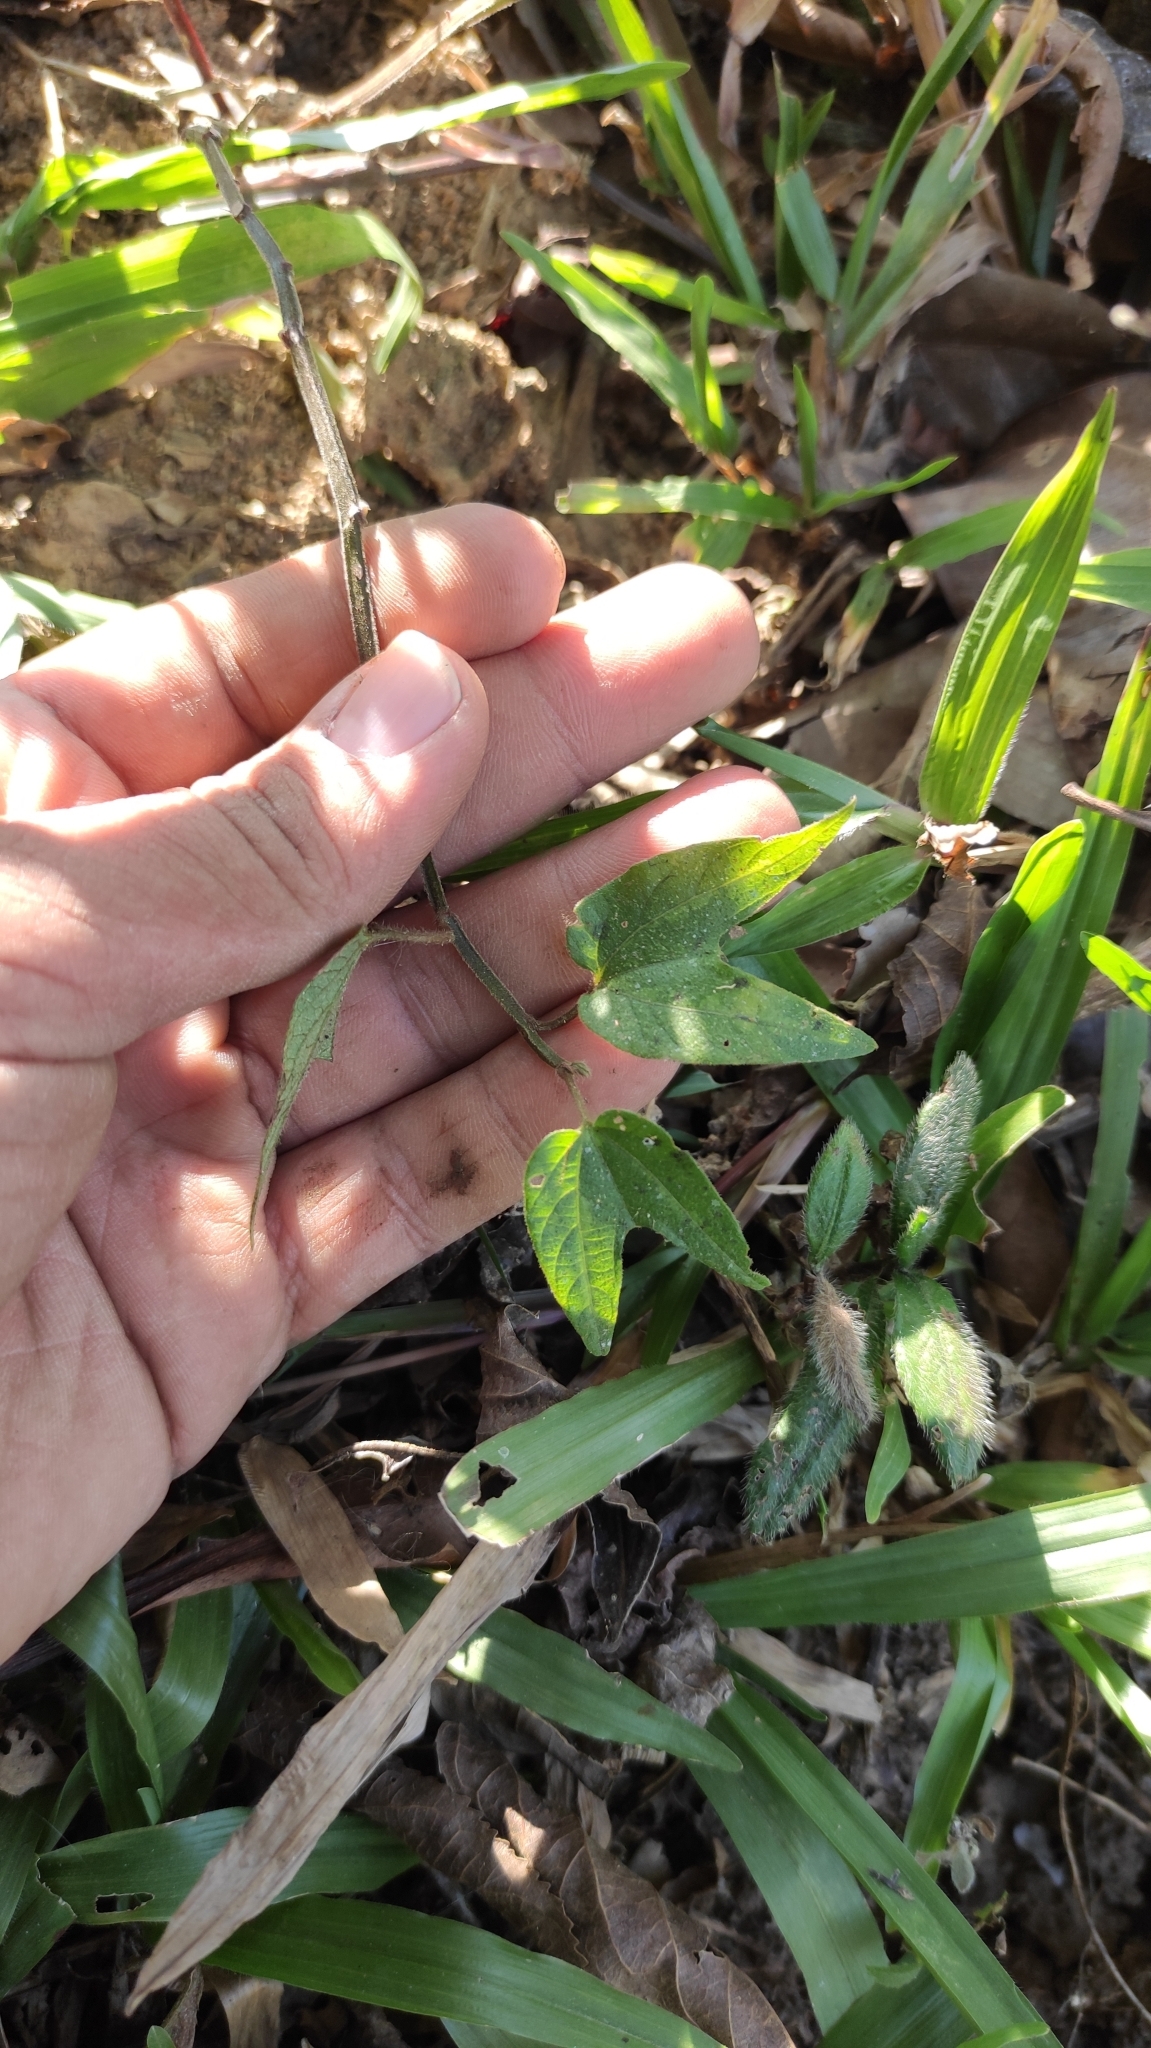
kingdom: Plantae
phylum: Tracheophyta
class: Magnoliopsida
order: Malpighiales
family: Passifloraceae
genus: Passiflora
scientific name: Passiflora capsularis
